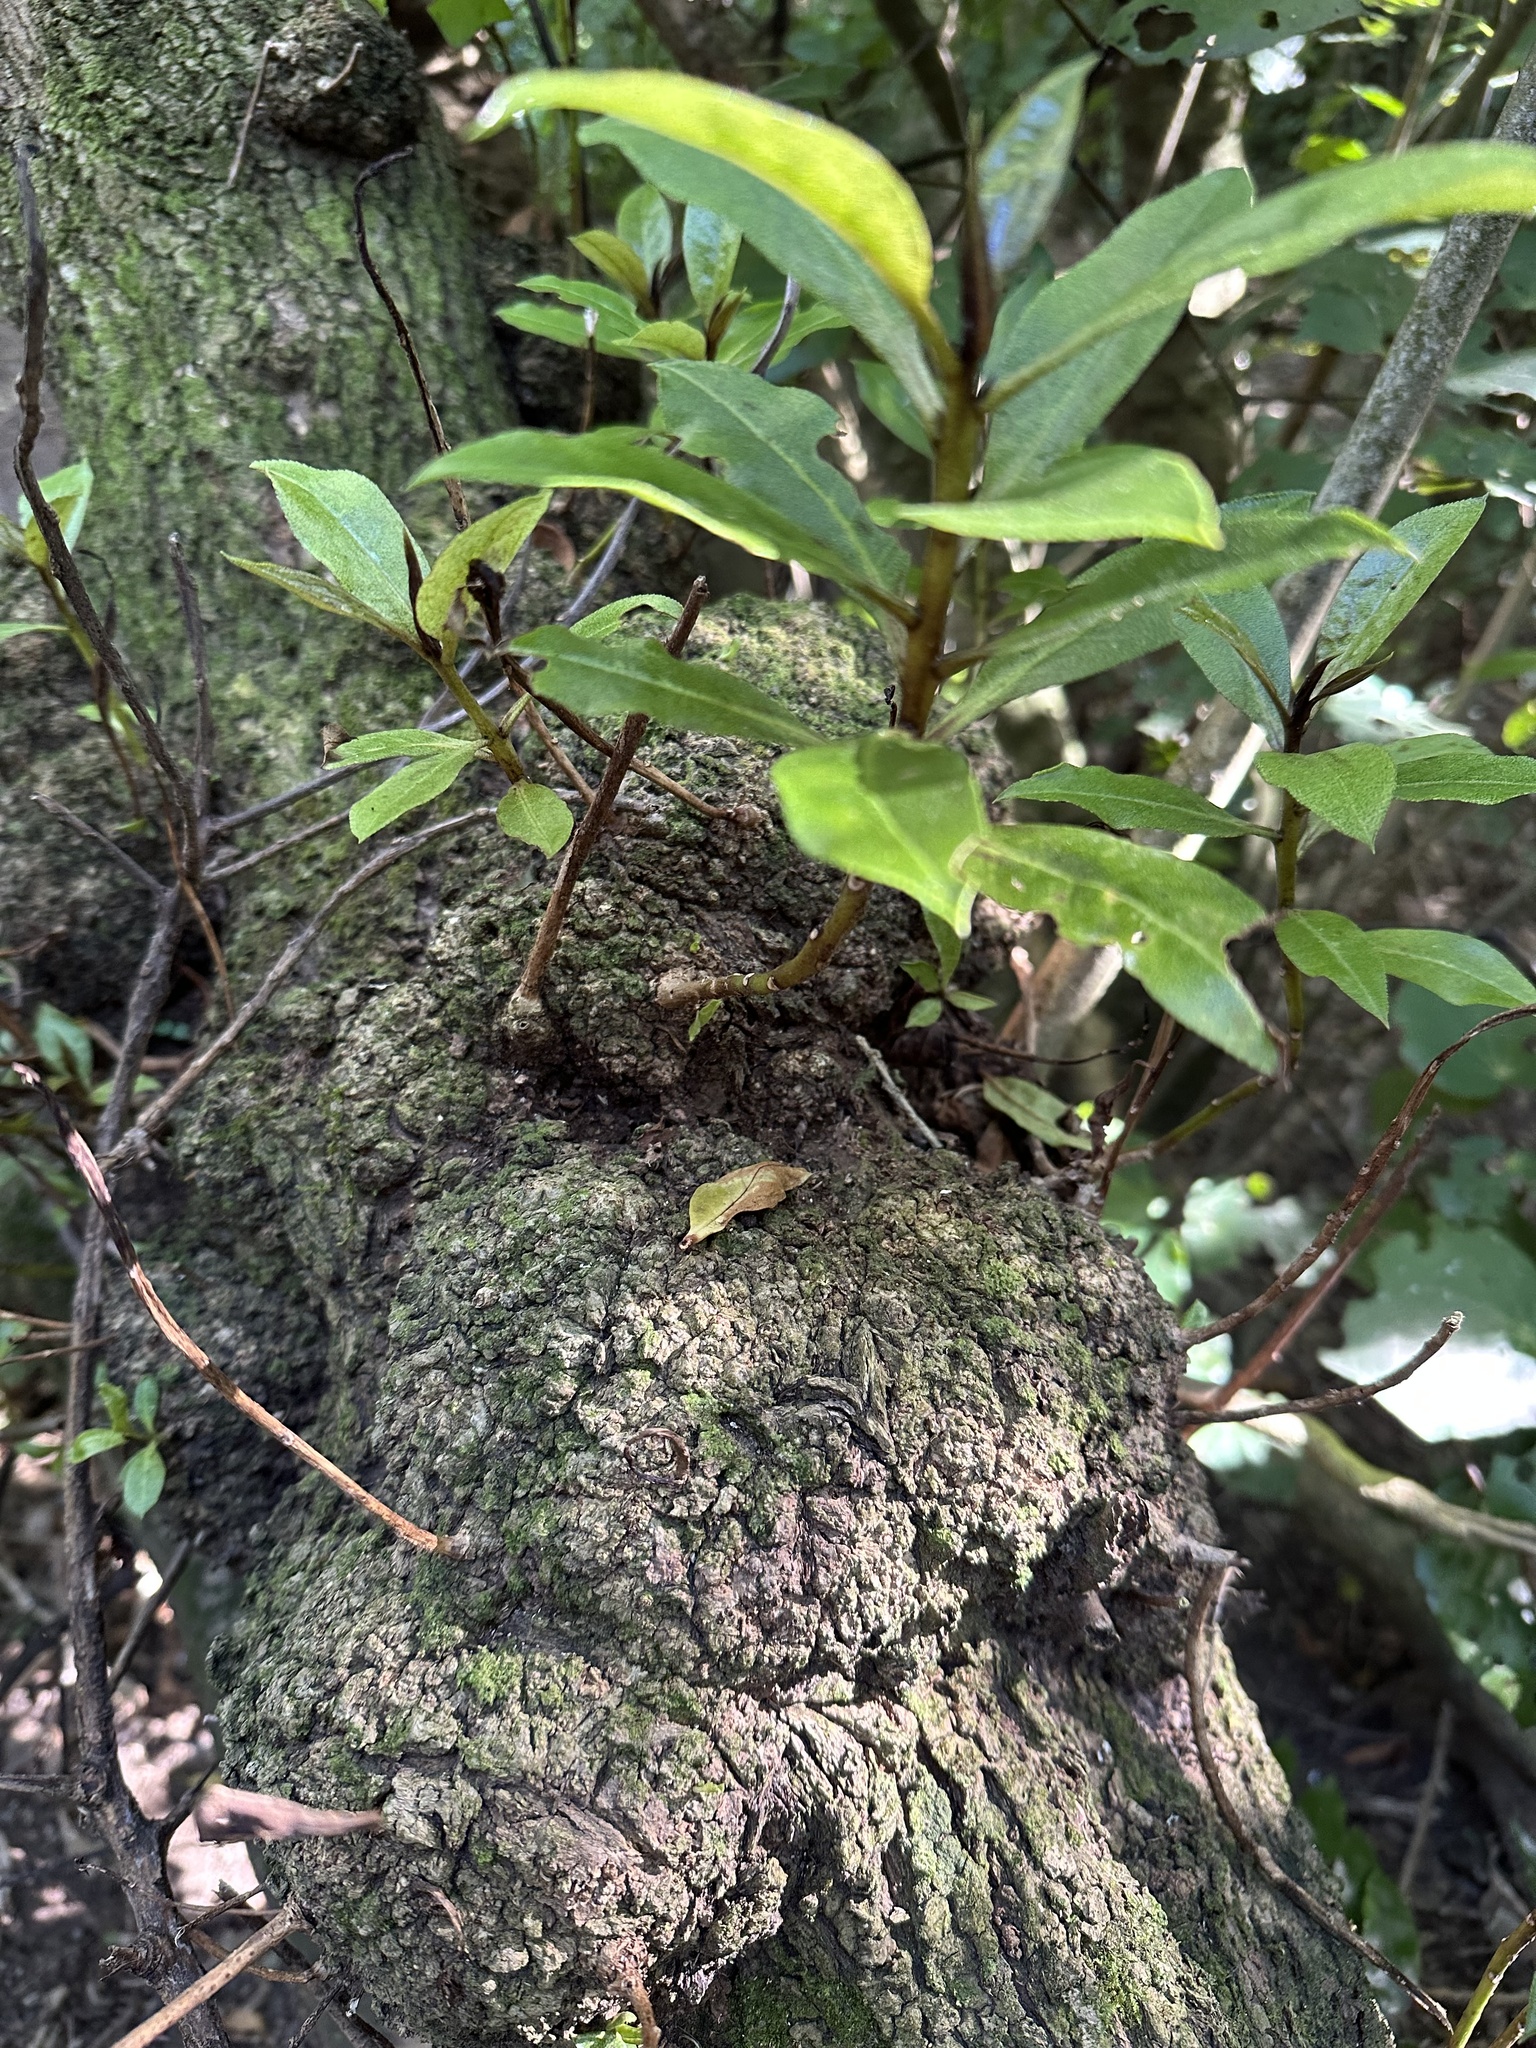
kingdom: Plantae
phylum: Tracheophyta
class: Magnoliopsida
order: Lamiales
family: Scrophulariaceae
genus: Myoporum
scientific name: Myoporum laetum
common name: Ngaio tree
